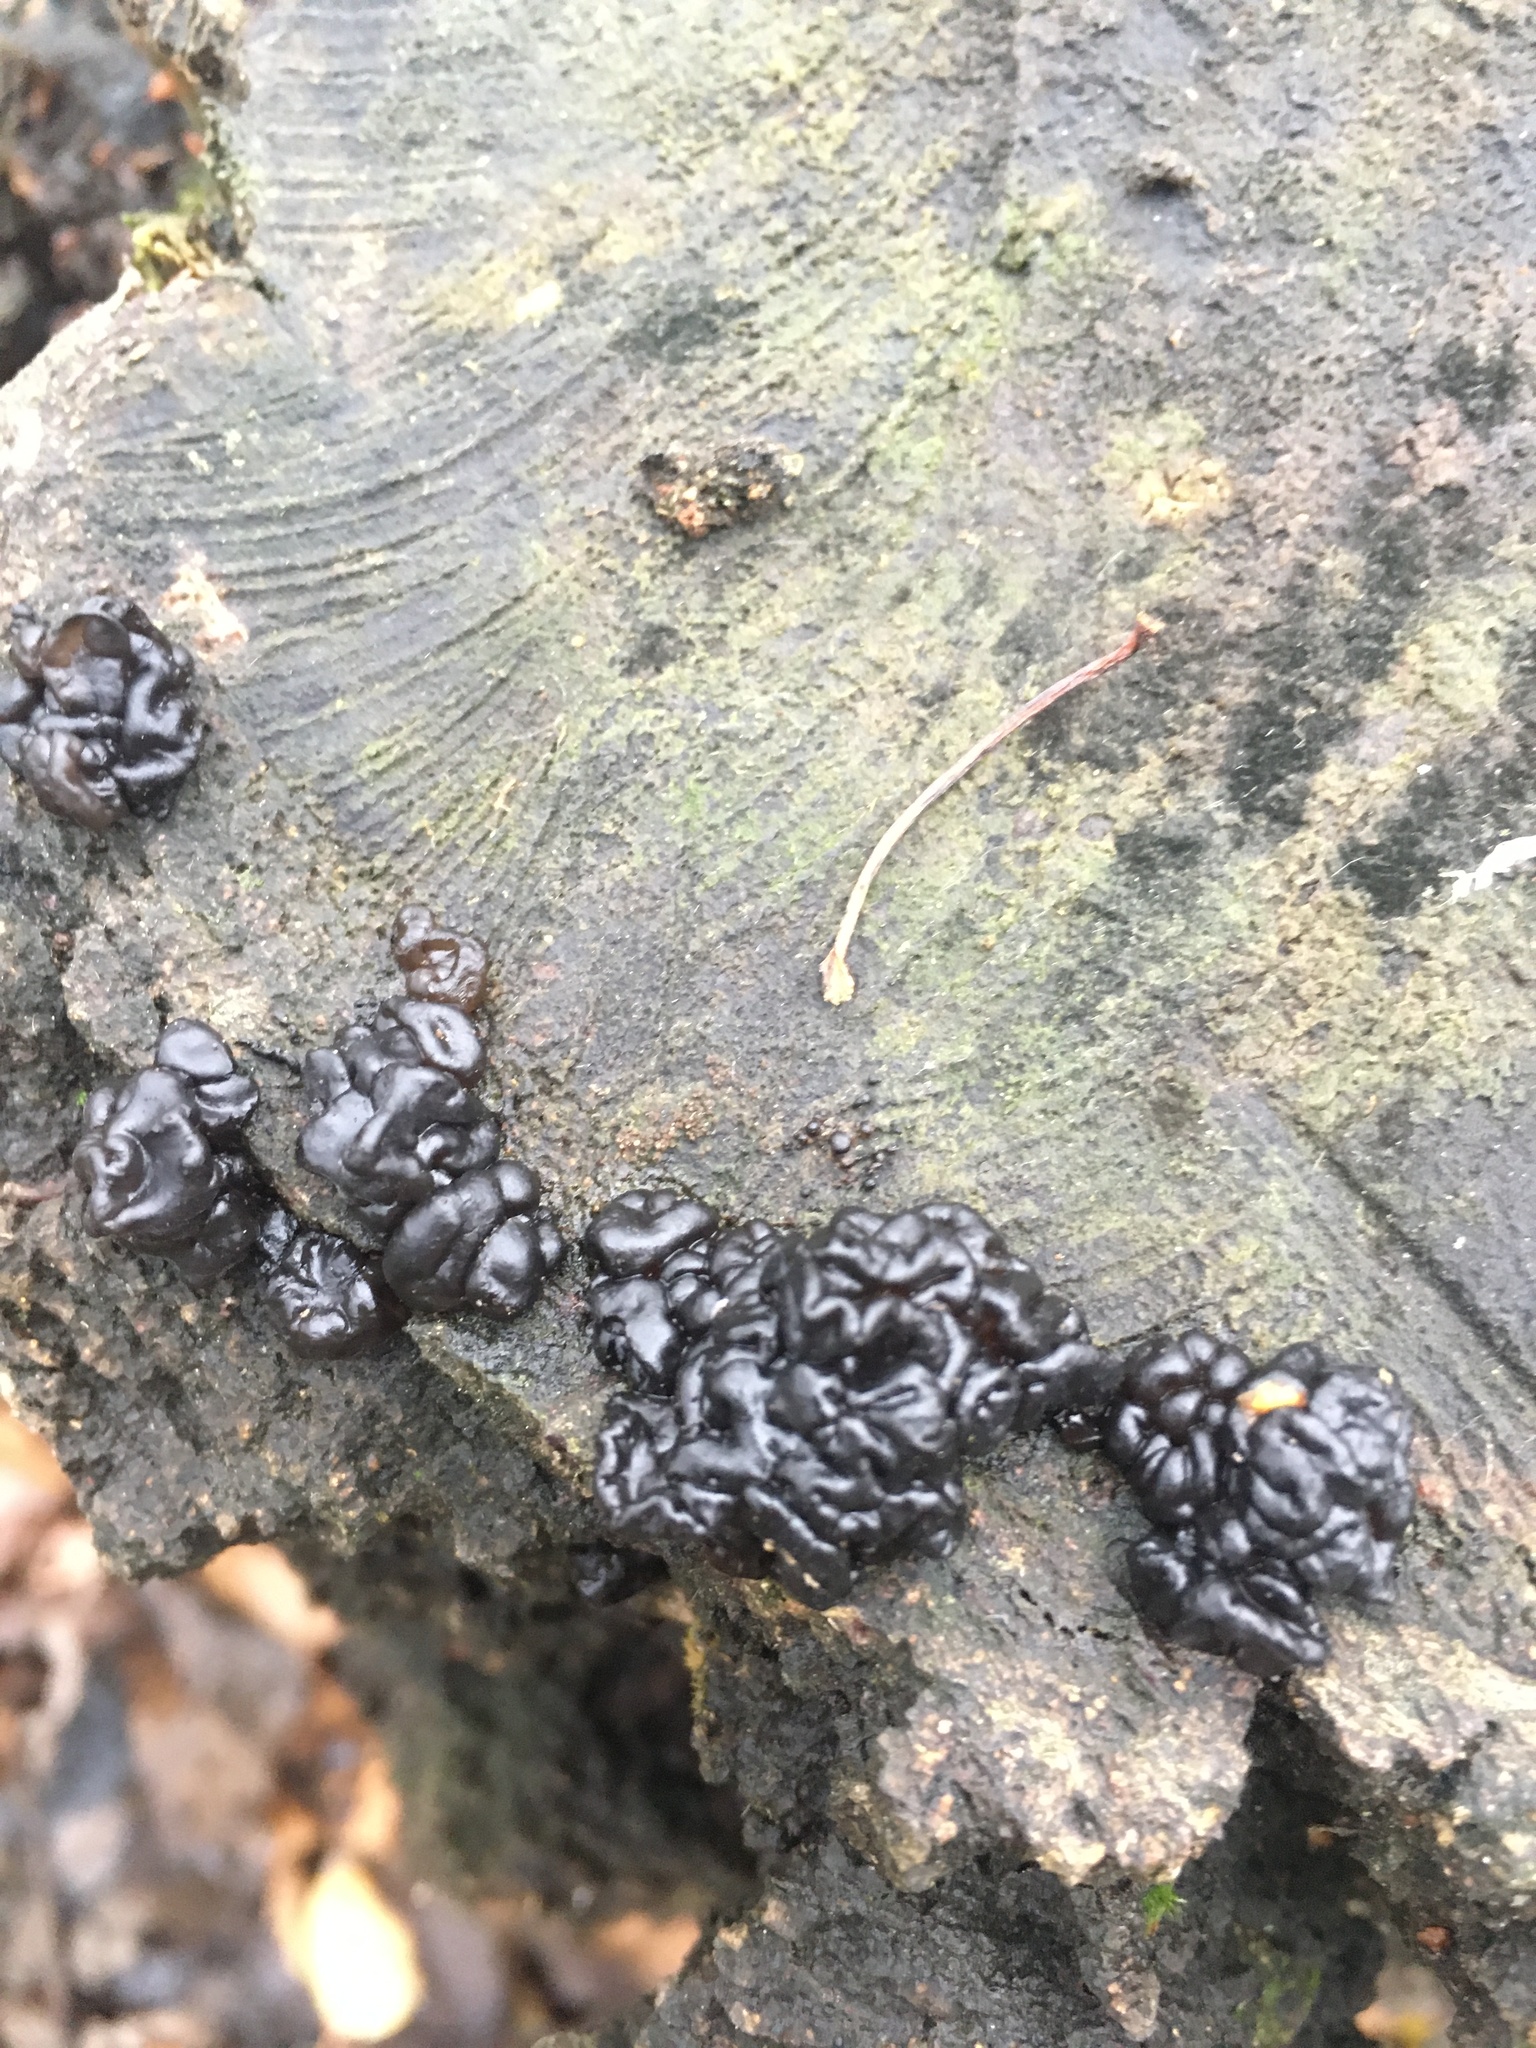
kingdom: Fungi
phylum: Basidiomycota
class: Agaricomycetes
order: Auriculariales
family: Auriculariaceae
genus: Exidia
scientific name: Exidia nigricans
